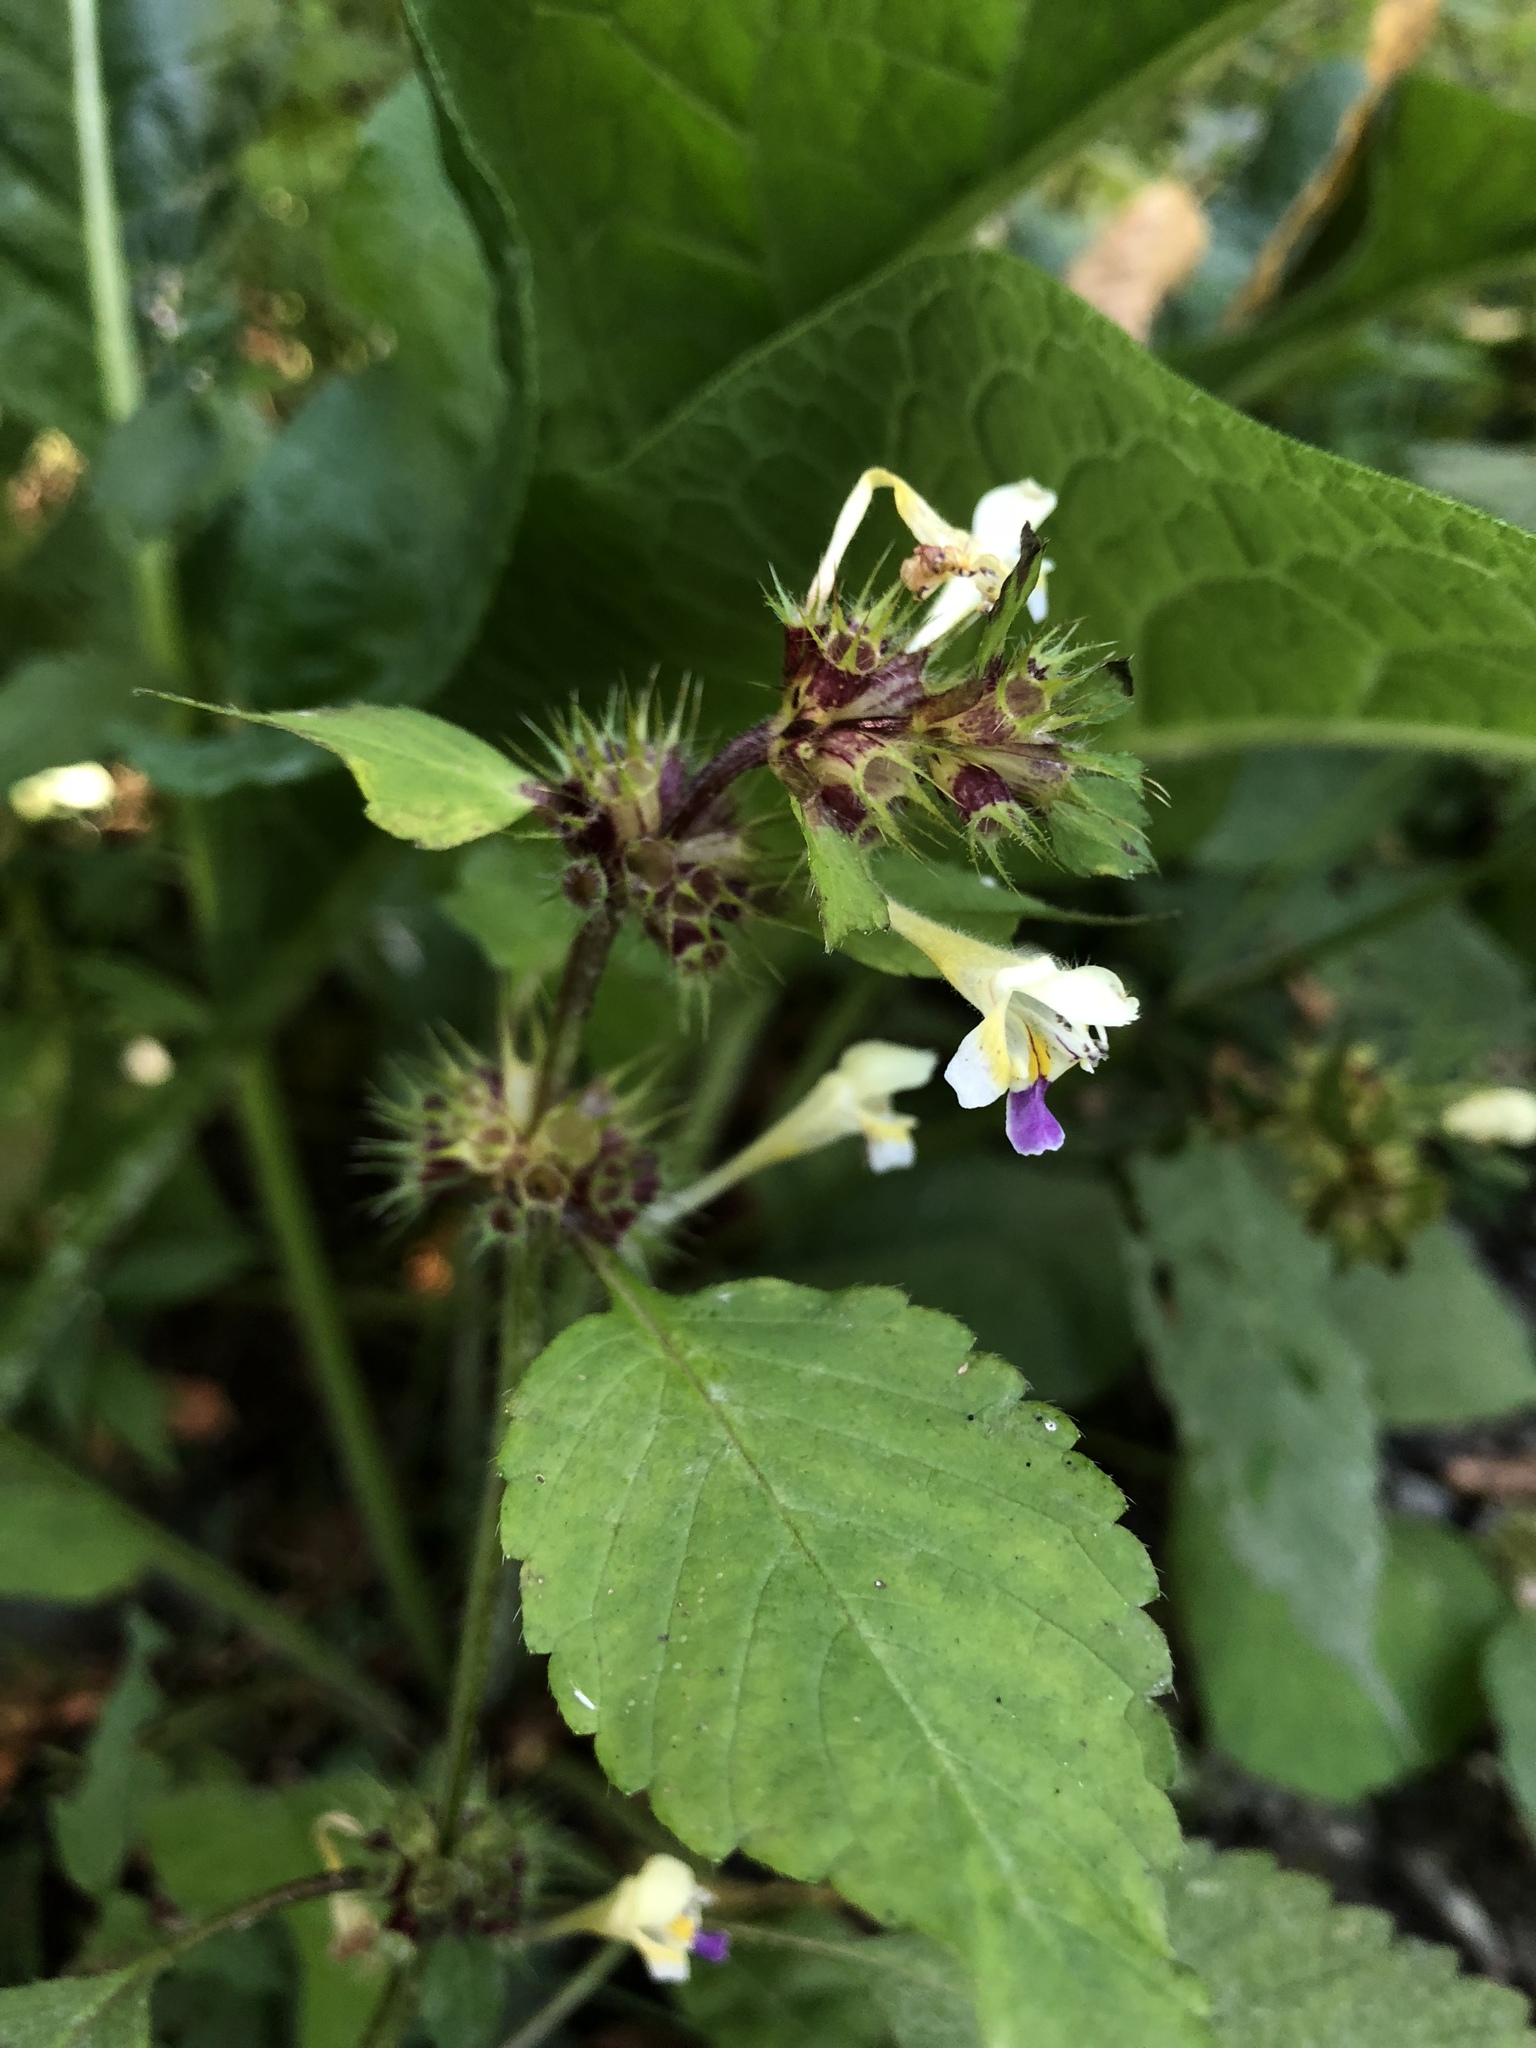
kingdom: Plantae
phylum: Tracheophyta
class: Magnoliopsida
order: Lamiales
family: Lamiaceae
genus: Galeopsis
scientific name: Galeopsis speciosa
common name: Large-flowered hemp-nettle
